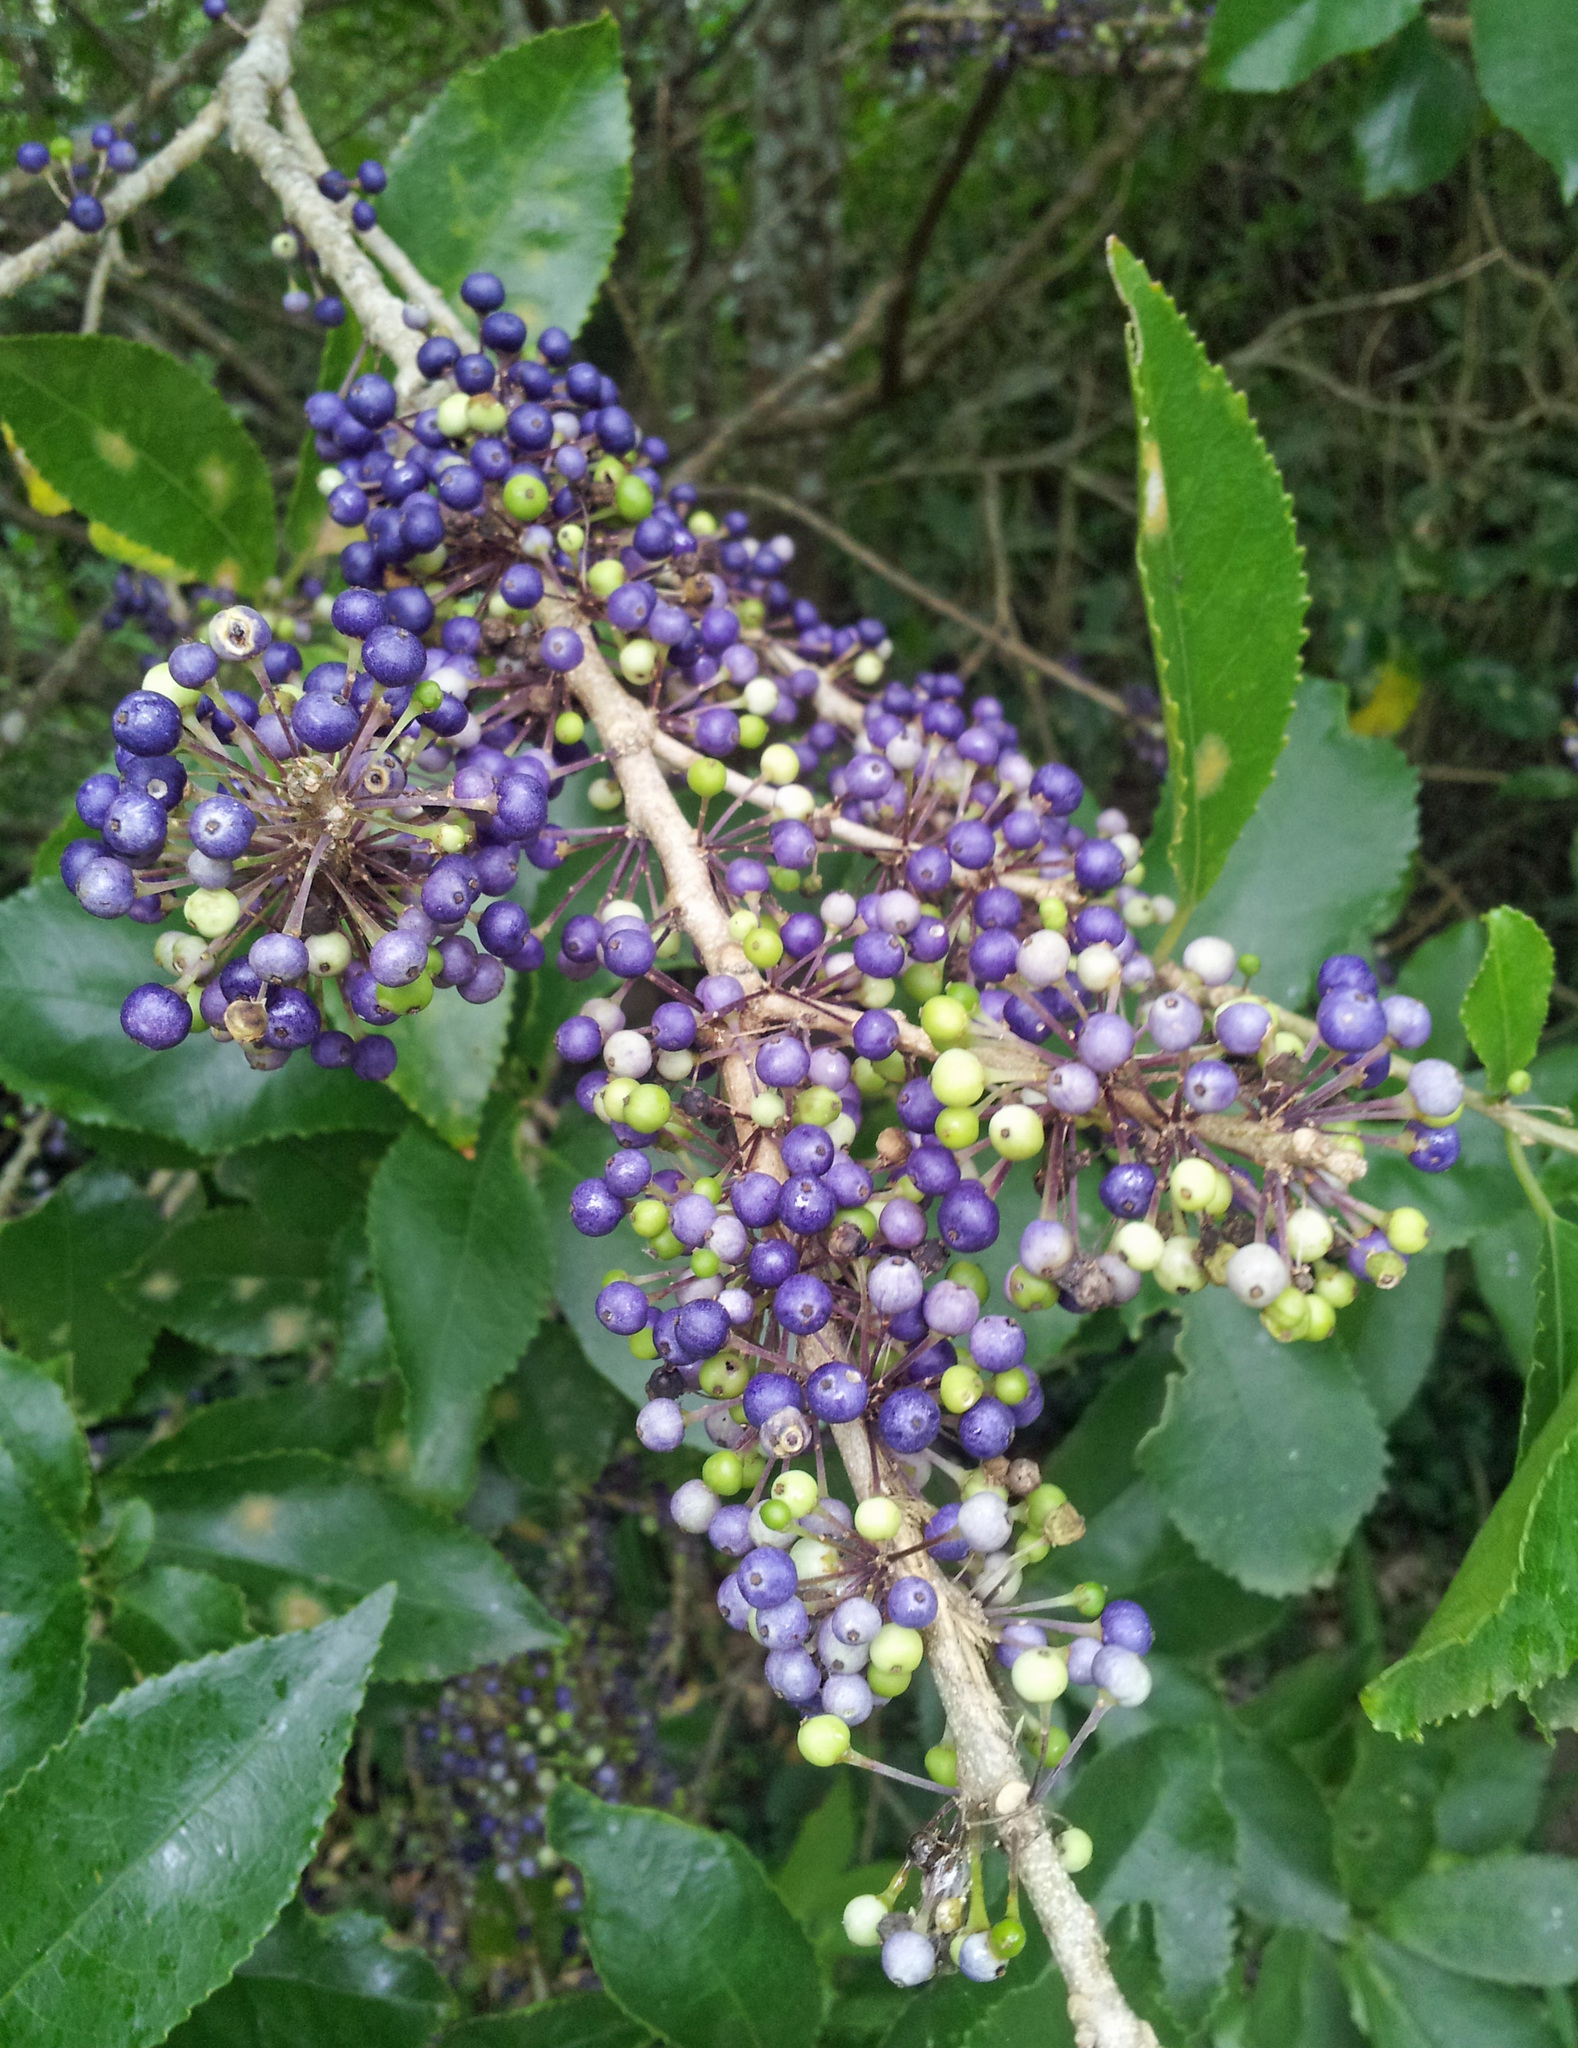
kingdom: Plantae
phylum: Tracheophyta
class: Magnoliopsida
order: Malpighiales
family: Violaceae
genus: Melicytus
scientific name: Melicytus ramiflorus
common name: Mahoe
